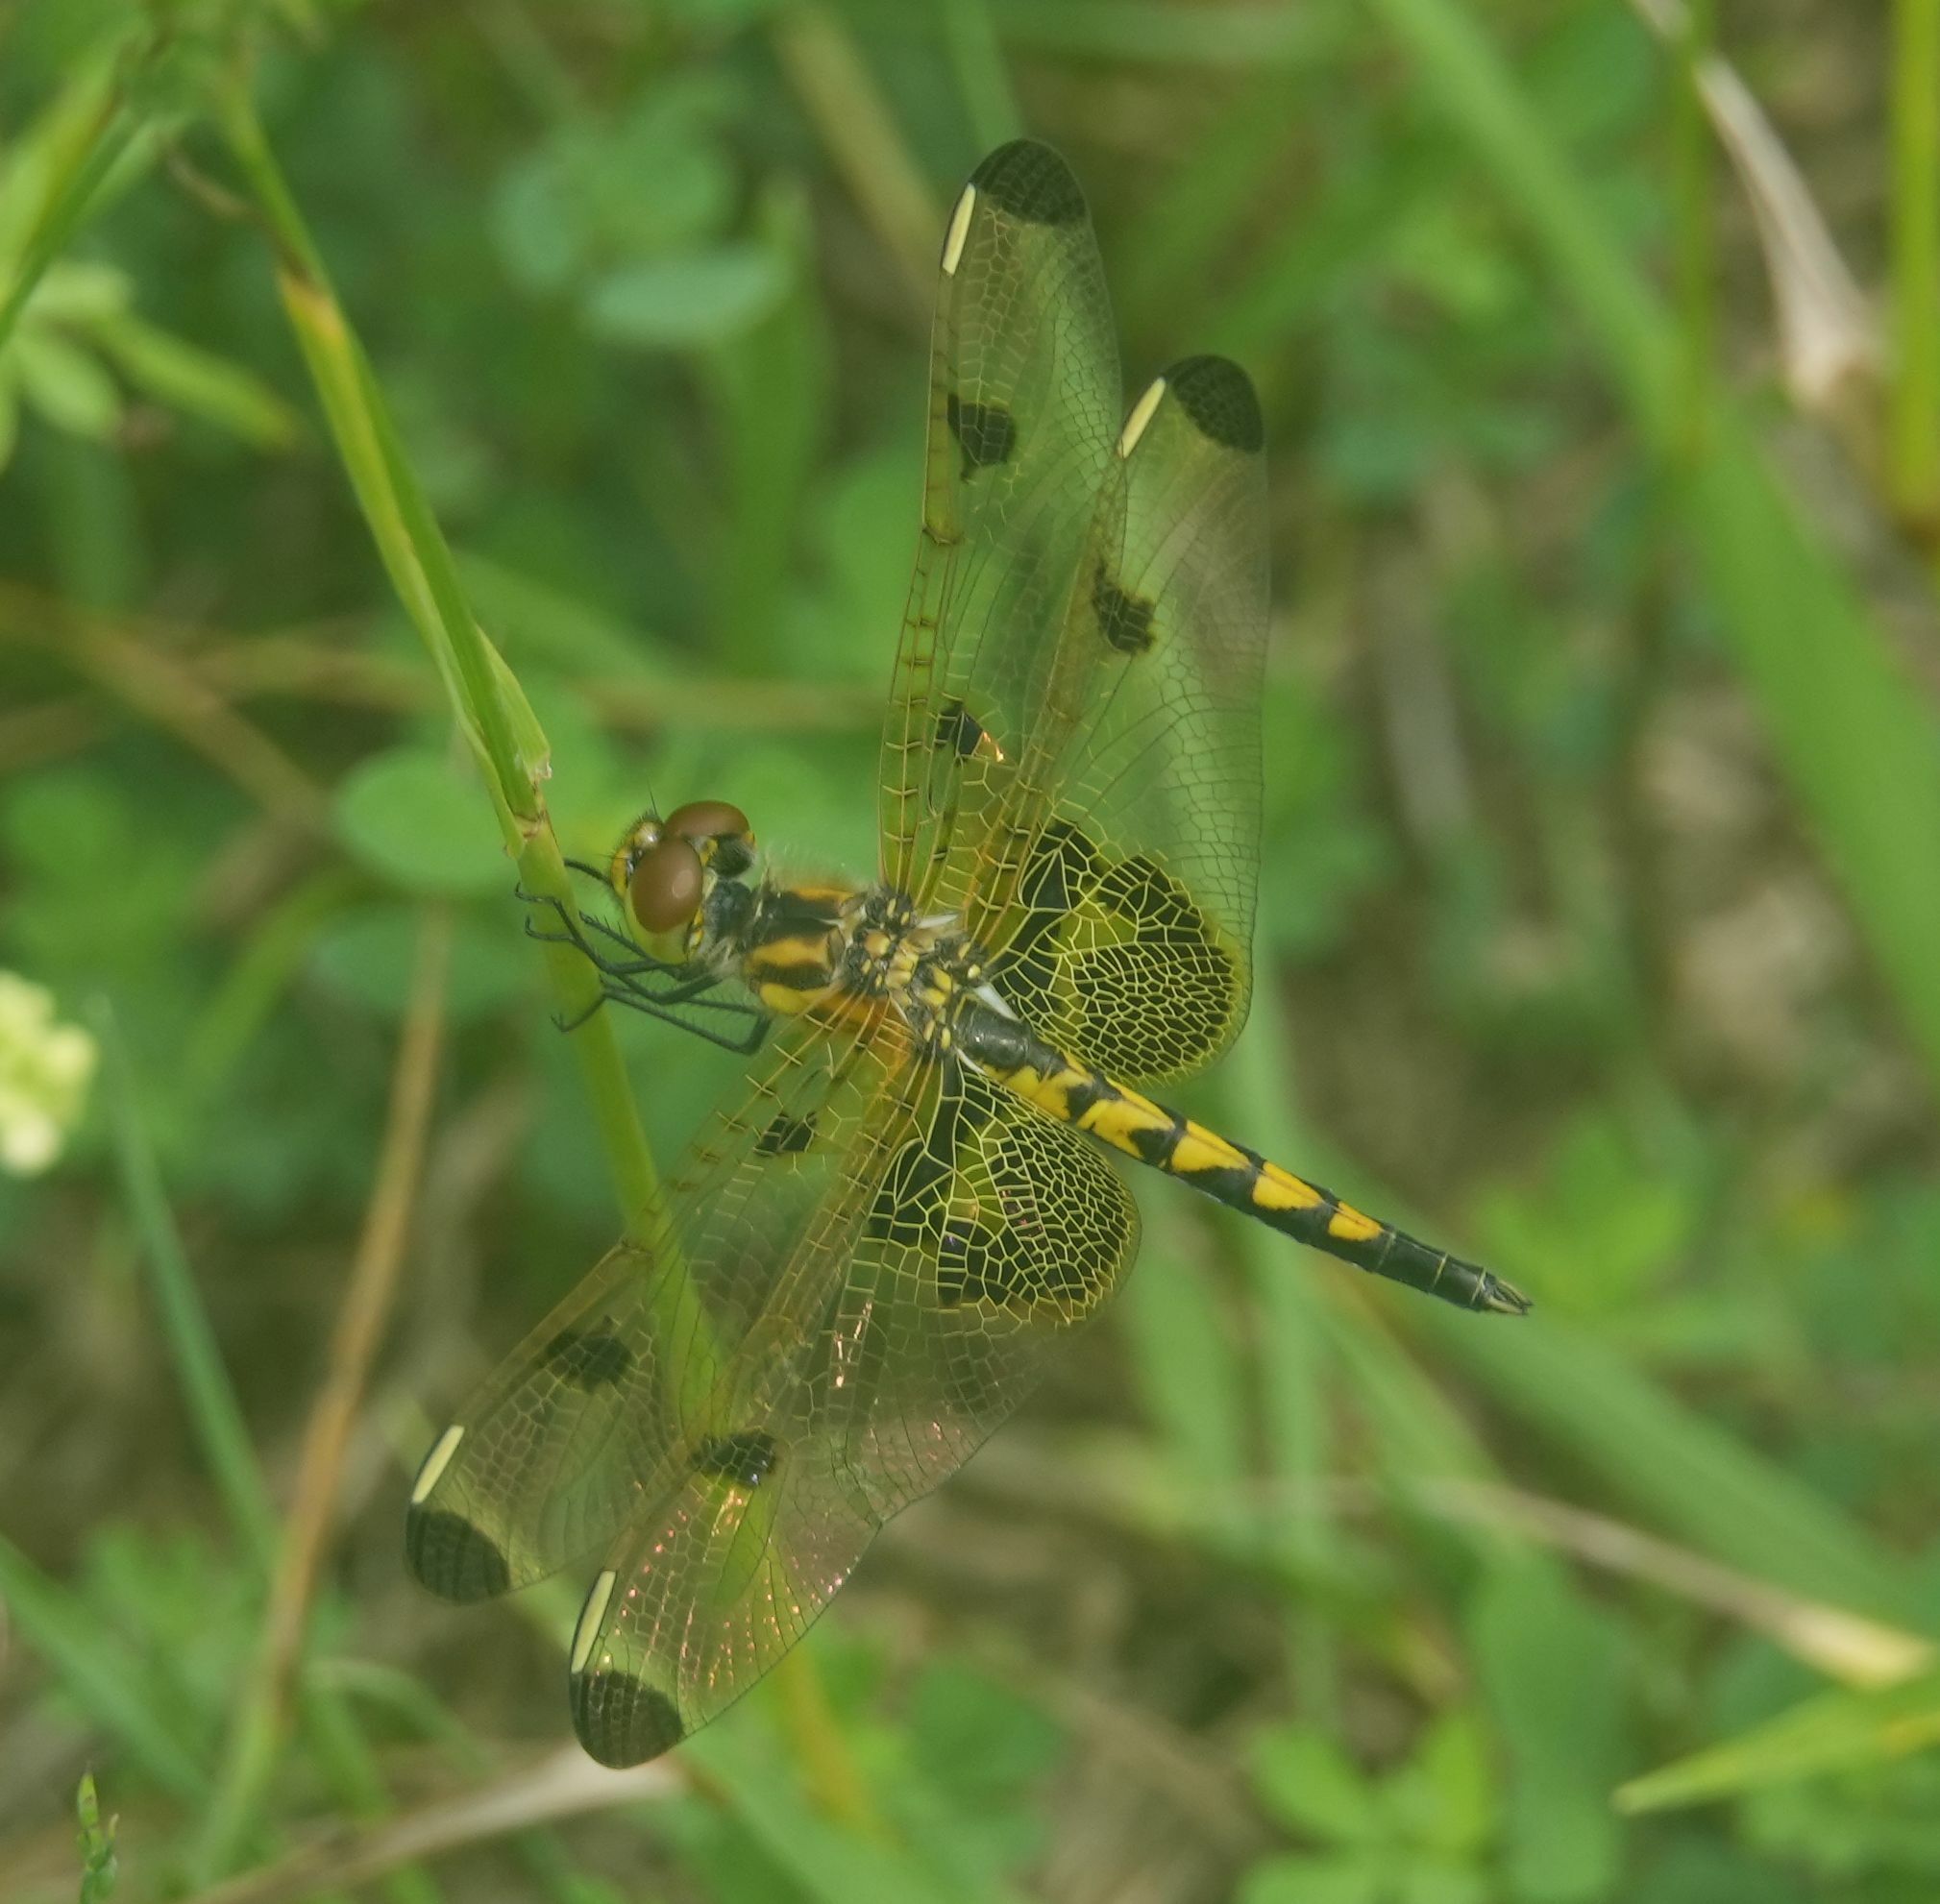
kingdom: Animalia
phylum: Arthropoda
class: Insecta
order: Odonata
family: Libellulidae
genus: Celithemis
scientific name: Celithemis elisa
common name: Calico pennant
